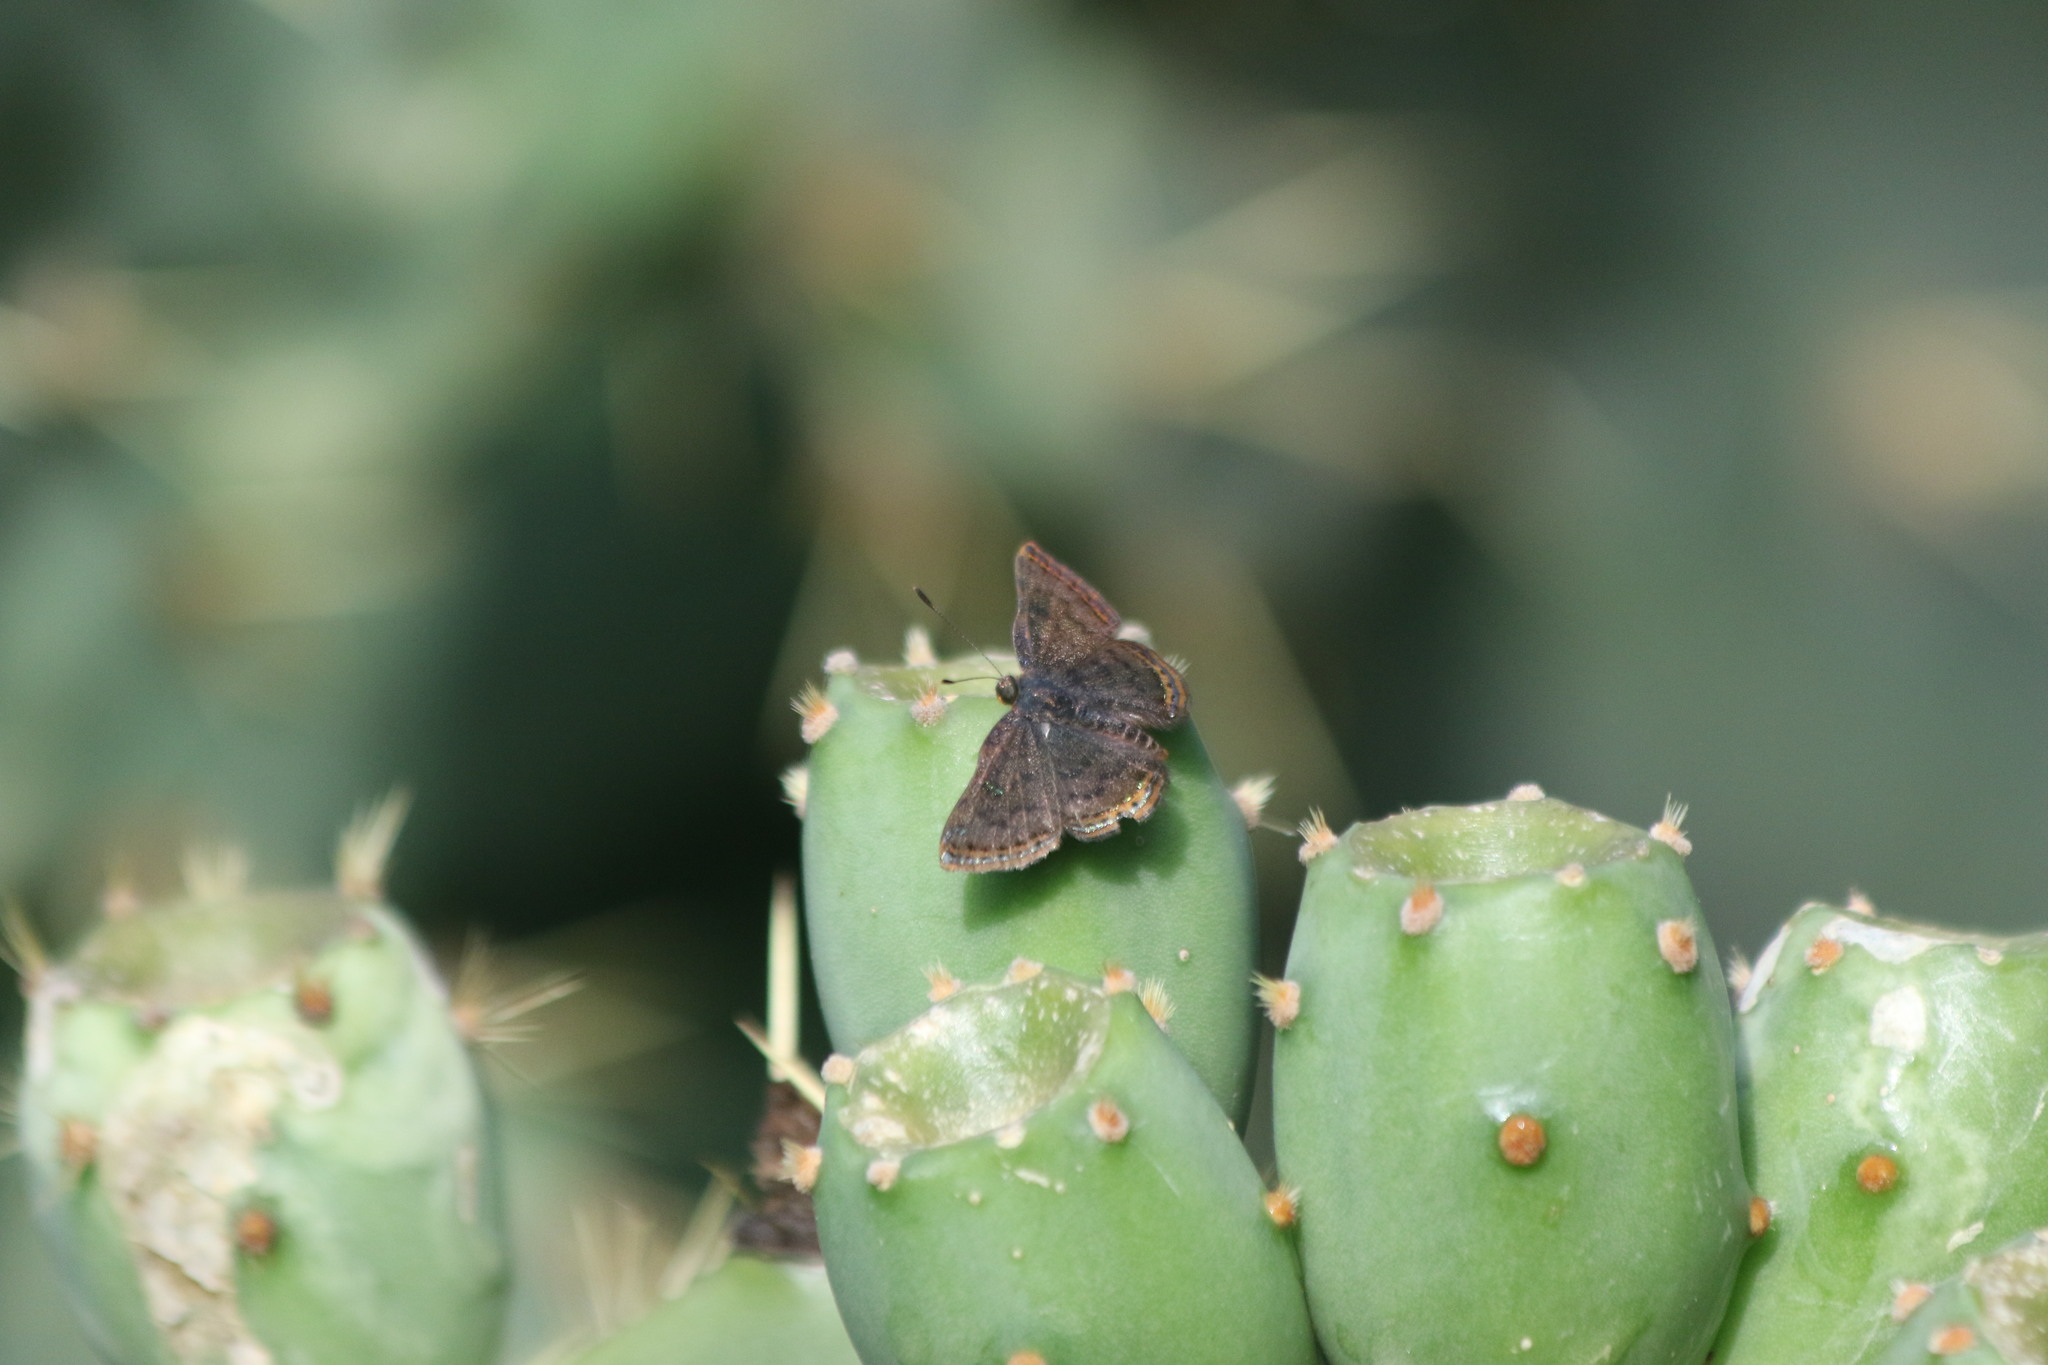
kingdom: Animalia
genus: Caria
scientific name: Caria ino
